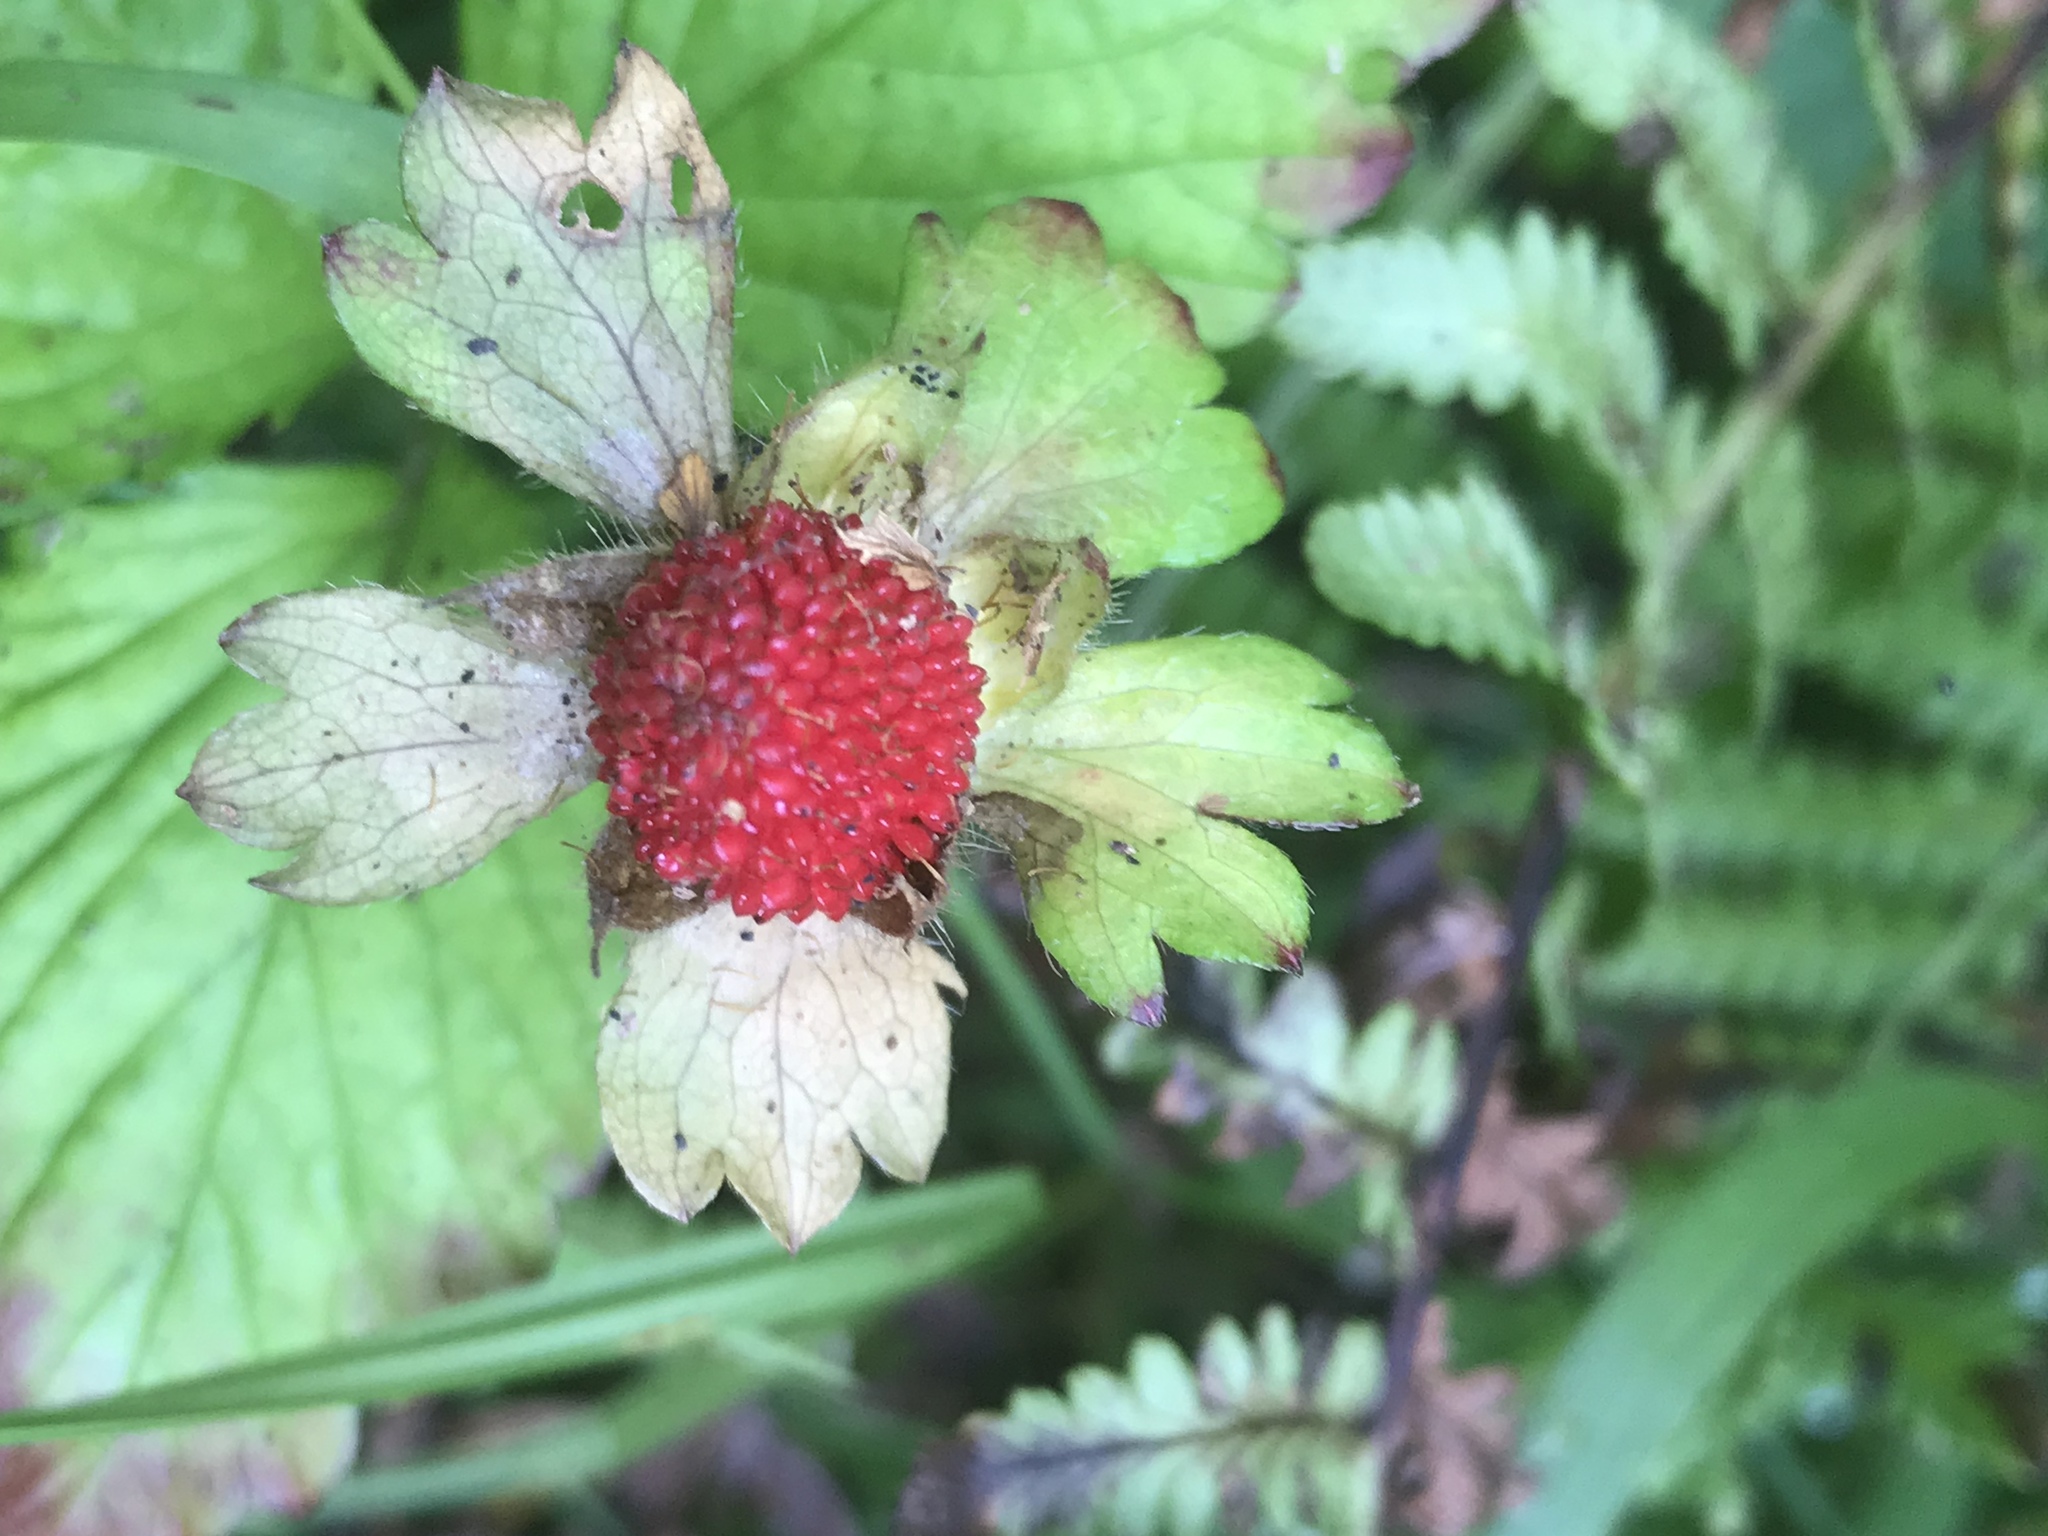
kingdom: Plantae
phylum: Tracheophyta
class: Magnoliopsida
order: Rosales
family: Rosaceae
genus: Potentilla
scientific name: Potentilla indica
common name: Yellow-flowered strawberry
